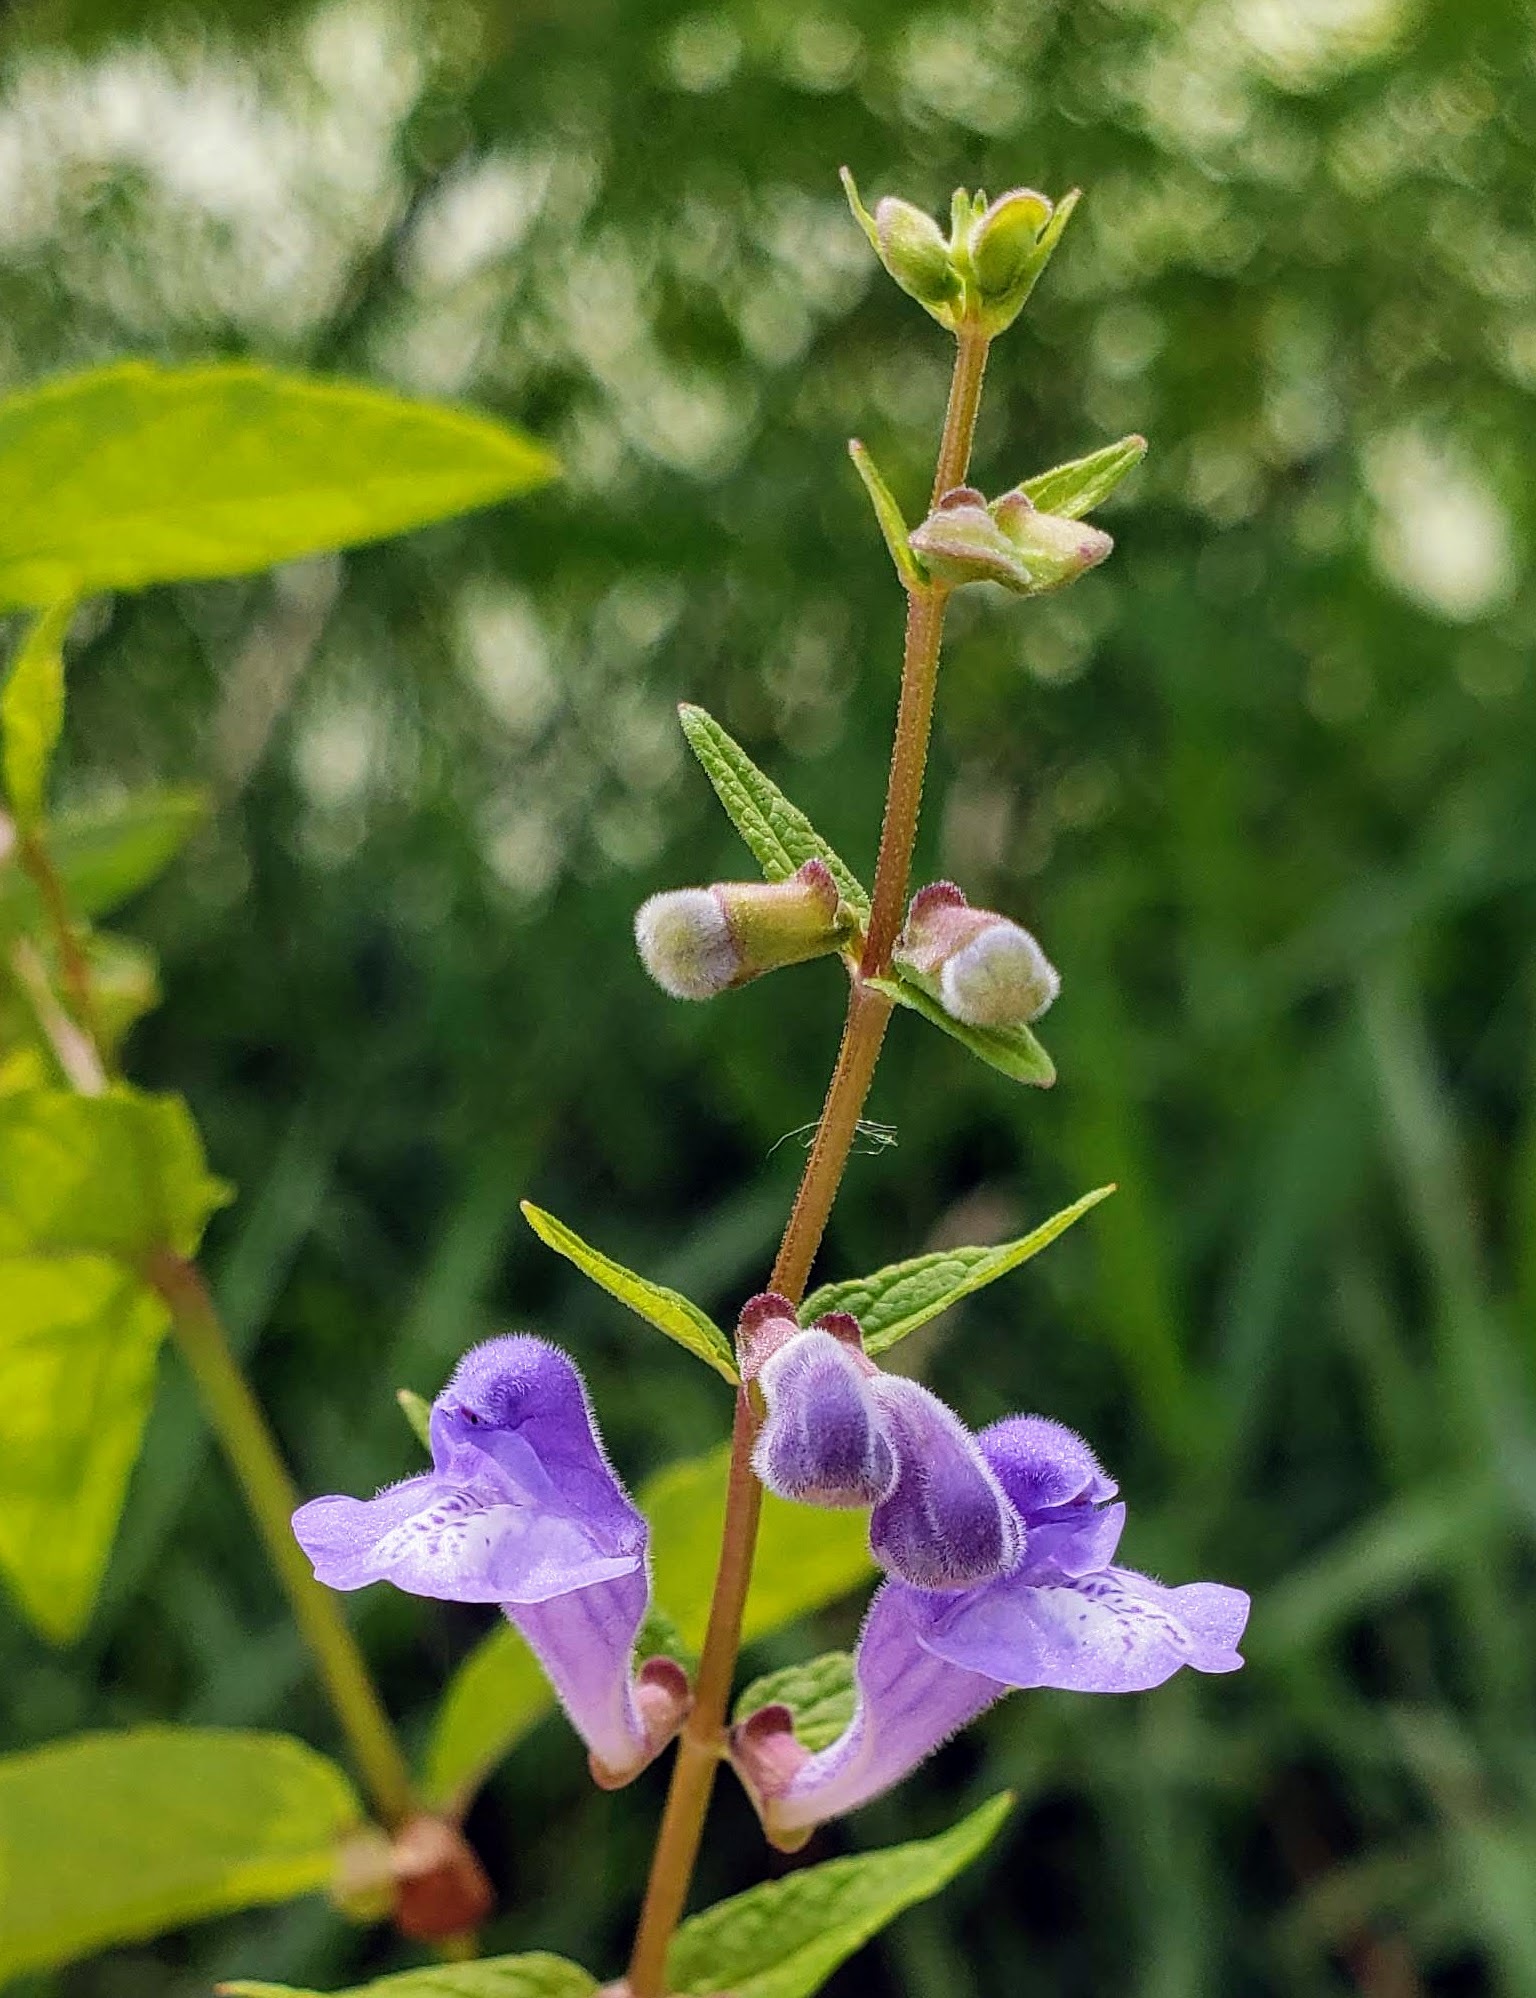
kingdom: Plantae
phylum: Tracheophyta
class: Magnoliopsida
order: Lamiales
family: Lamiaceae
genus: Scutellaria
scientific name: Scutellaria galericulata
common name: Skullcap
